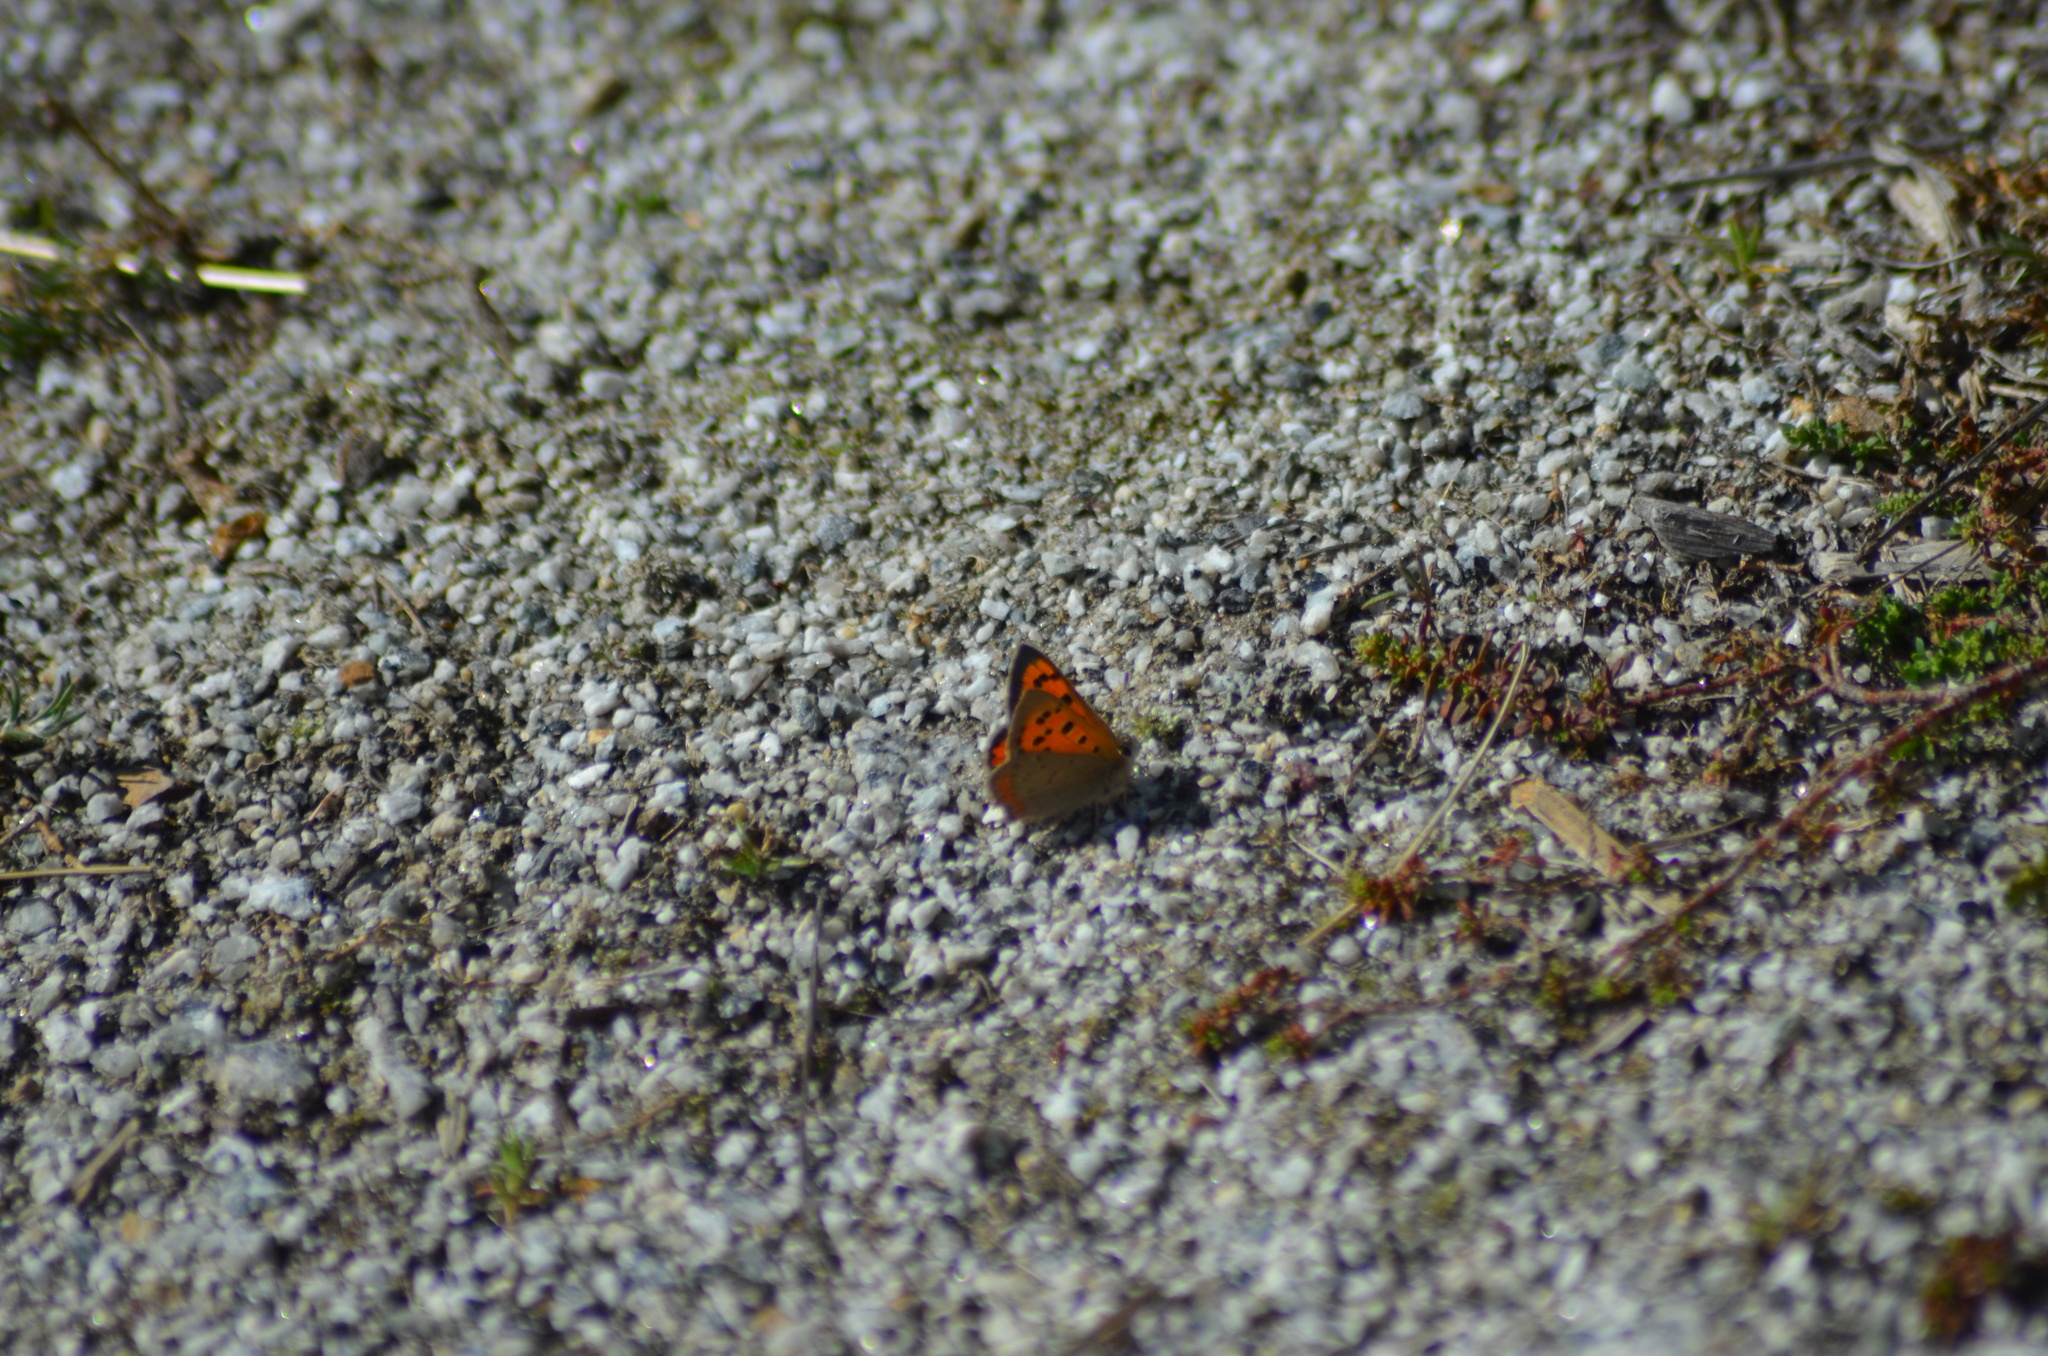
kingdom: Animalia
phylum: Arthropoda
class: Insecta
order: Lepidoptera
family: Lycaenidae
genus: Lycaena
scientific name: Lycaena phlaeas
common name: Small copper
